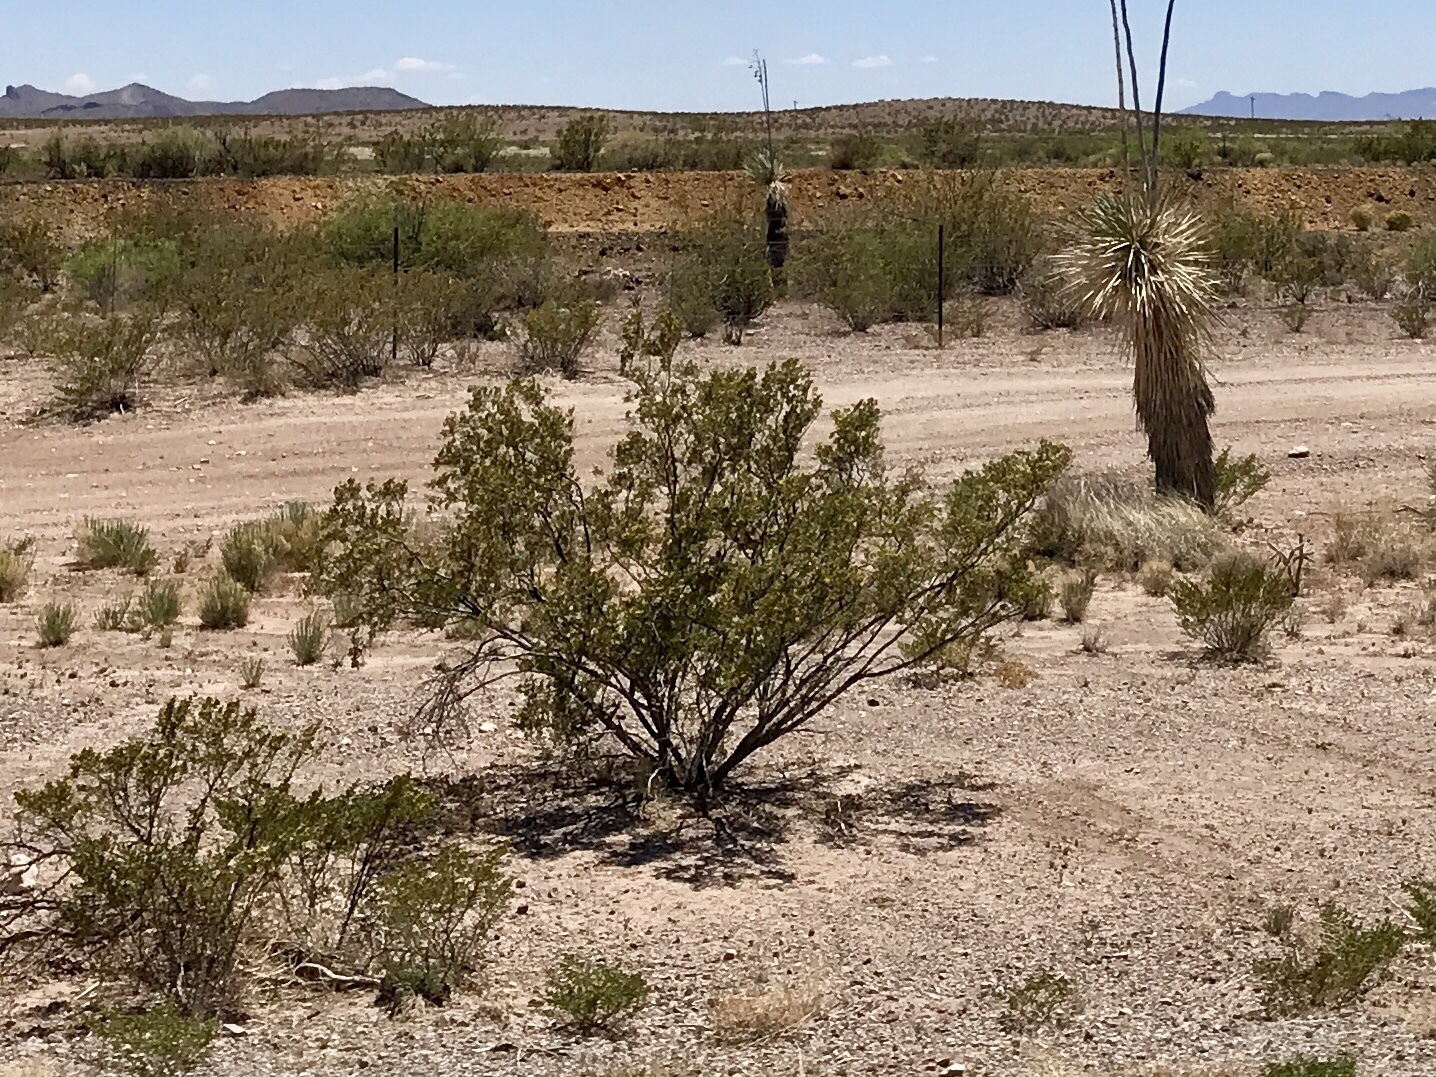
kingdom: Plantae
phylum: Tracheophyta
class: Magnoliopsida
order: Zygophyllales
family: Zygophyllaceae
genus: Larrea
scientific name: Larrea tridentata
